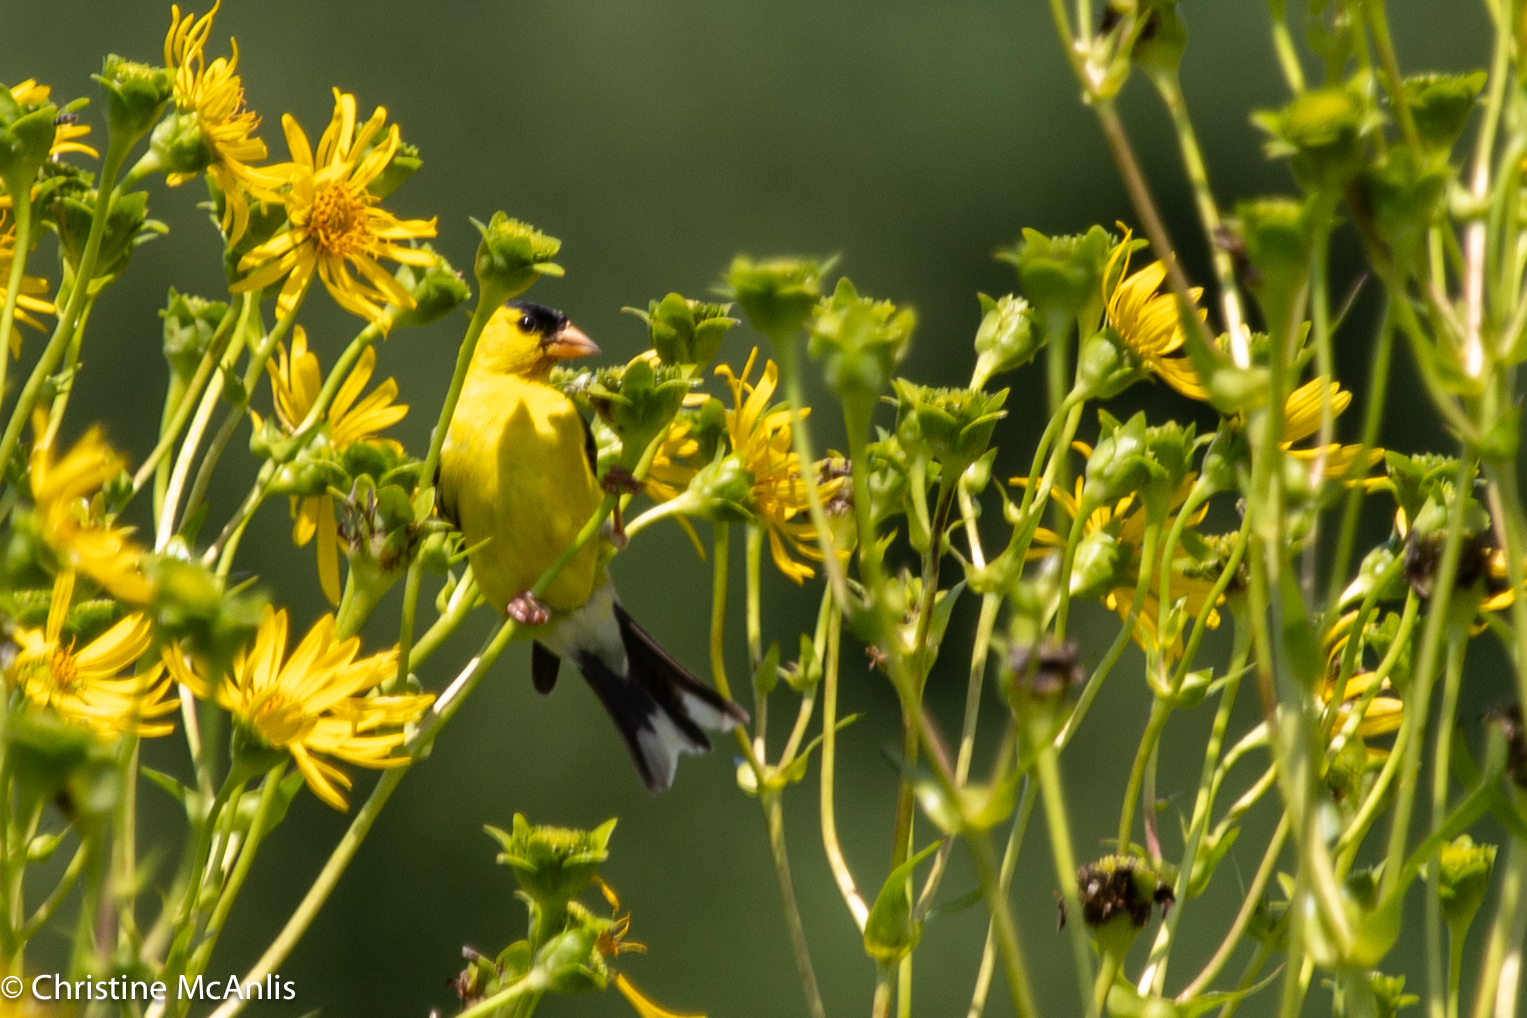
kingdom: Animalia
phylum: Chordata
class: Aves
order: Passeriformes
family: Fringillidae
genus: Spinus
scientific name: Spinus tristis
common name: American goldfinch
